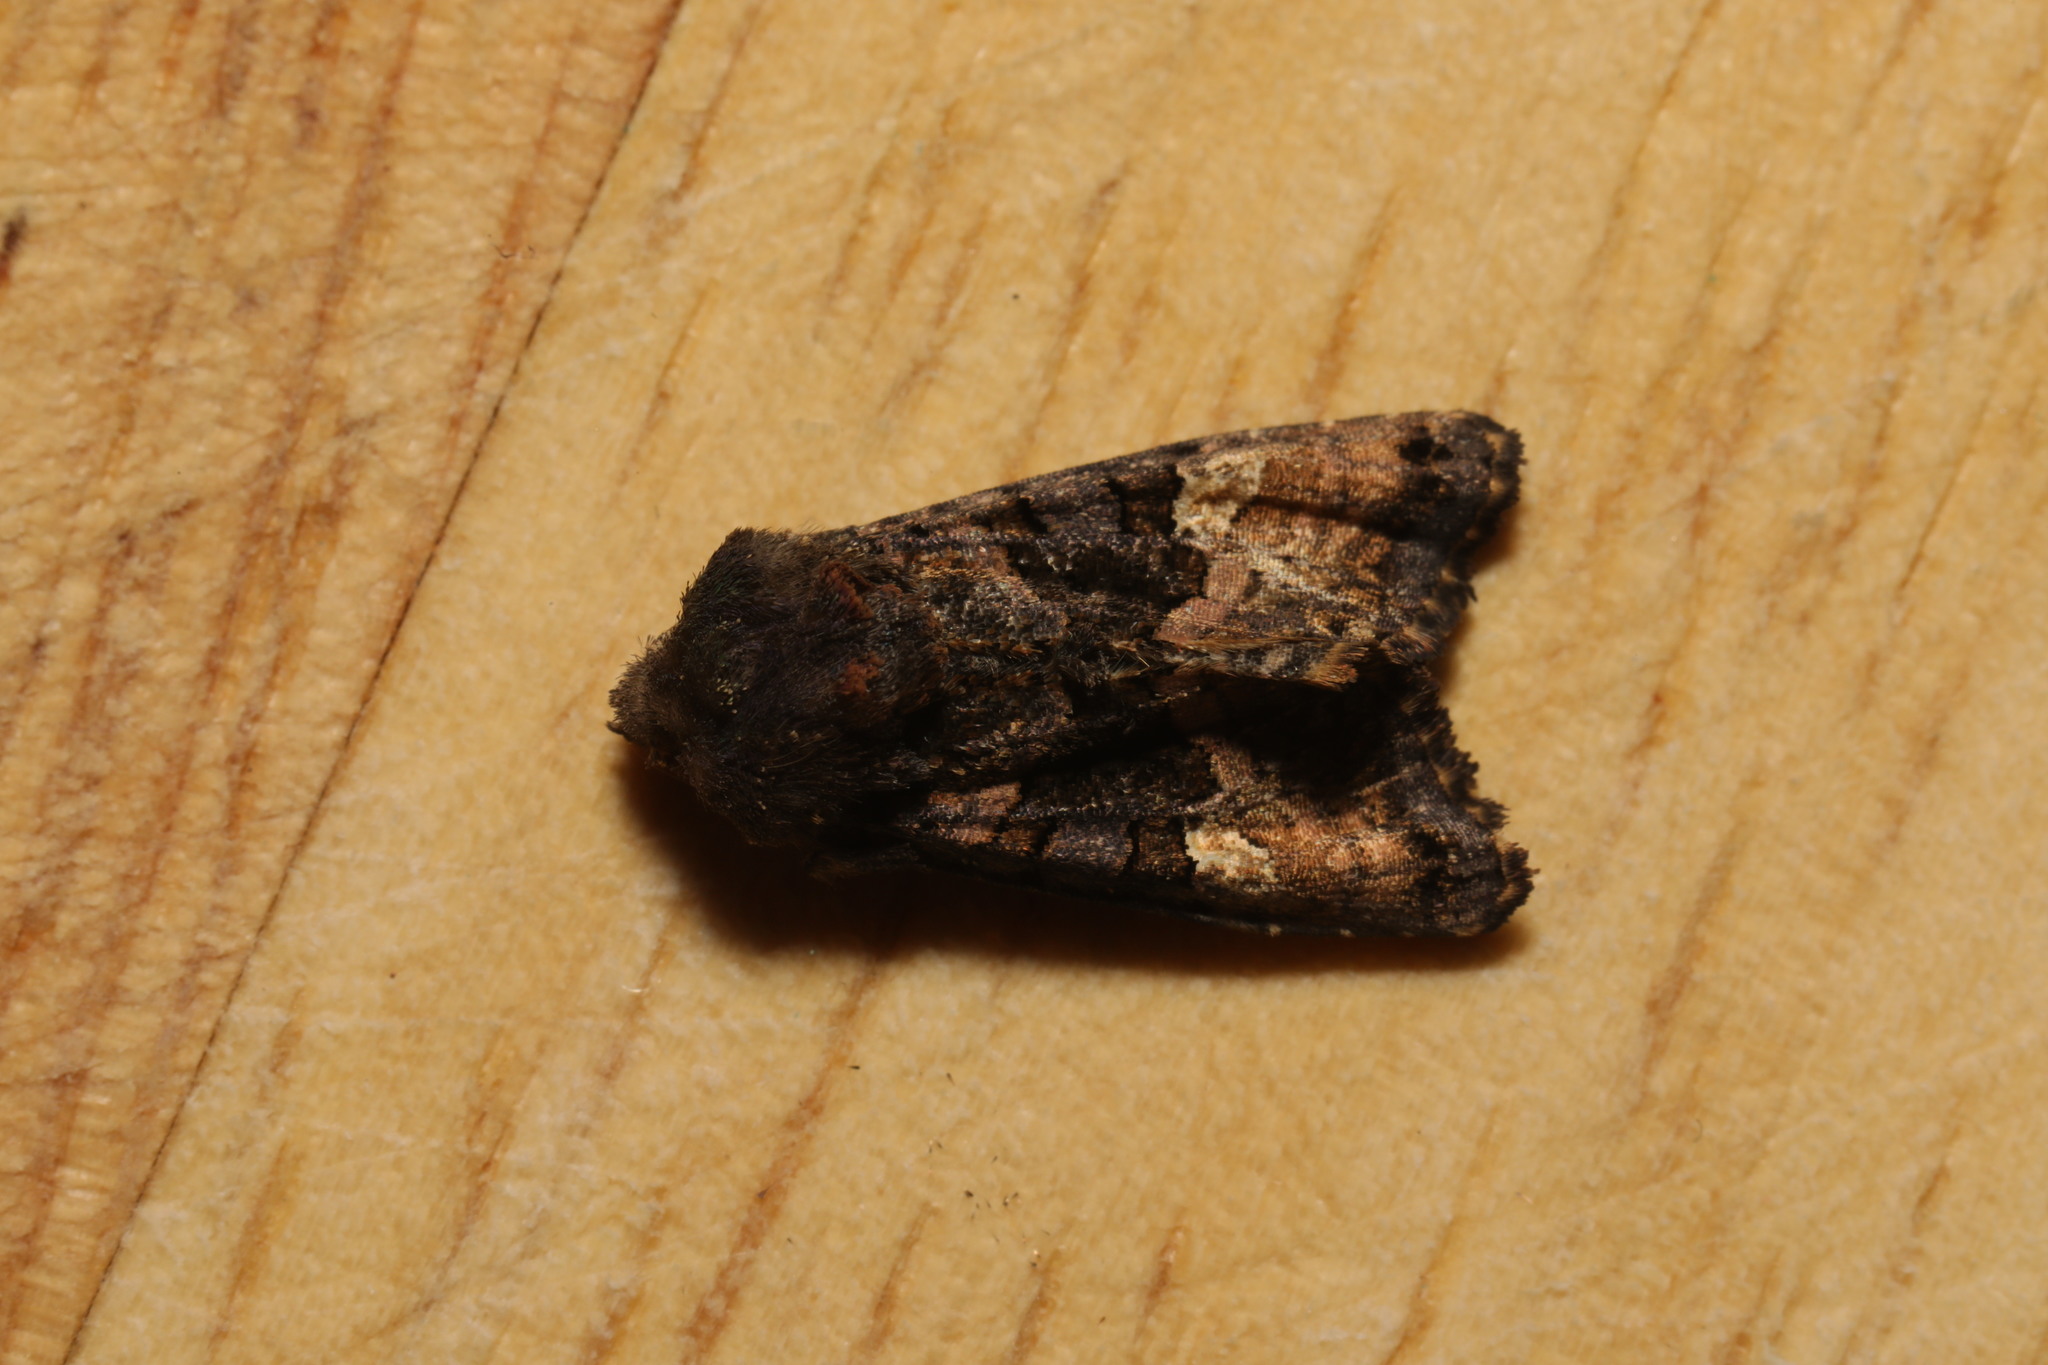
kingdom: Animalia
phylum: Arthropoda
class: Insecta
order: Lepidoptera
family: Noctuidae
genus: Euplexia
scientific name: Euplexia lucipara
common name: Small angle shades
